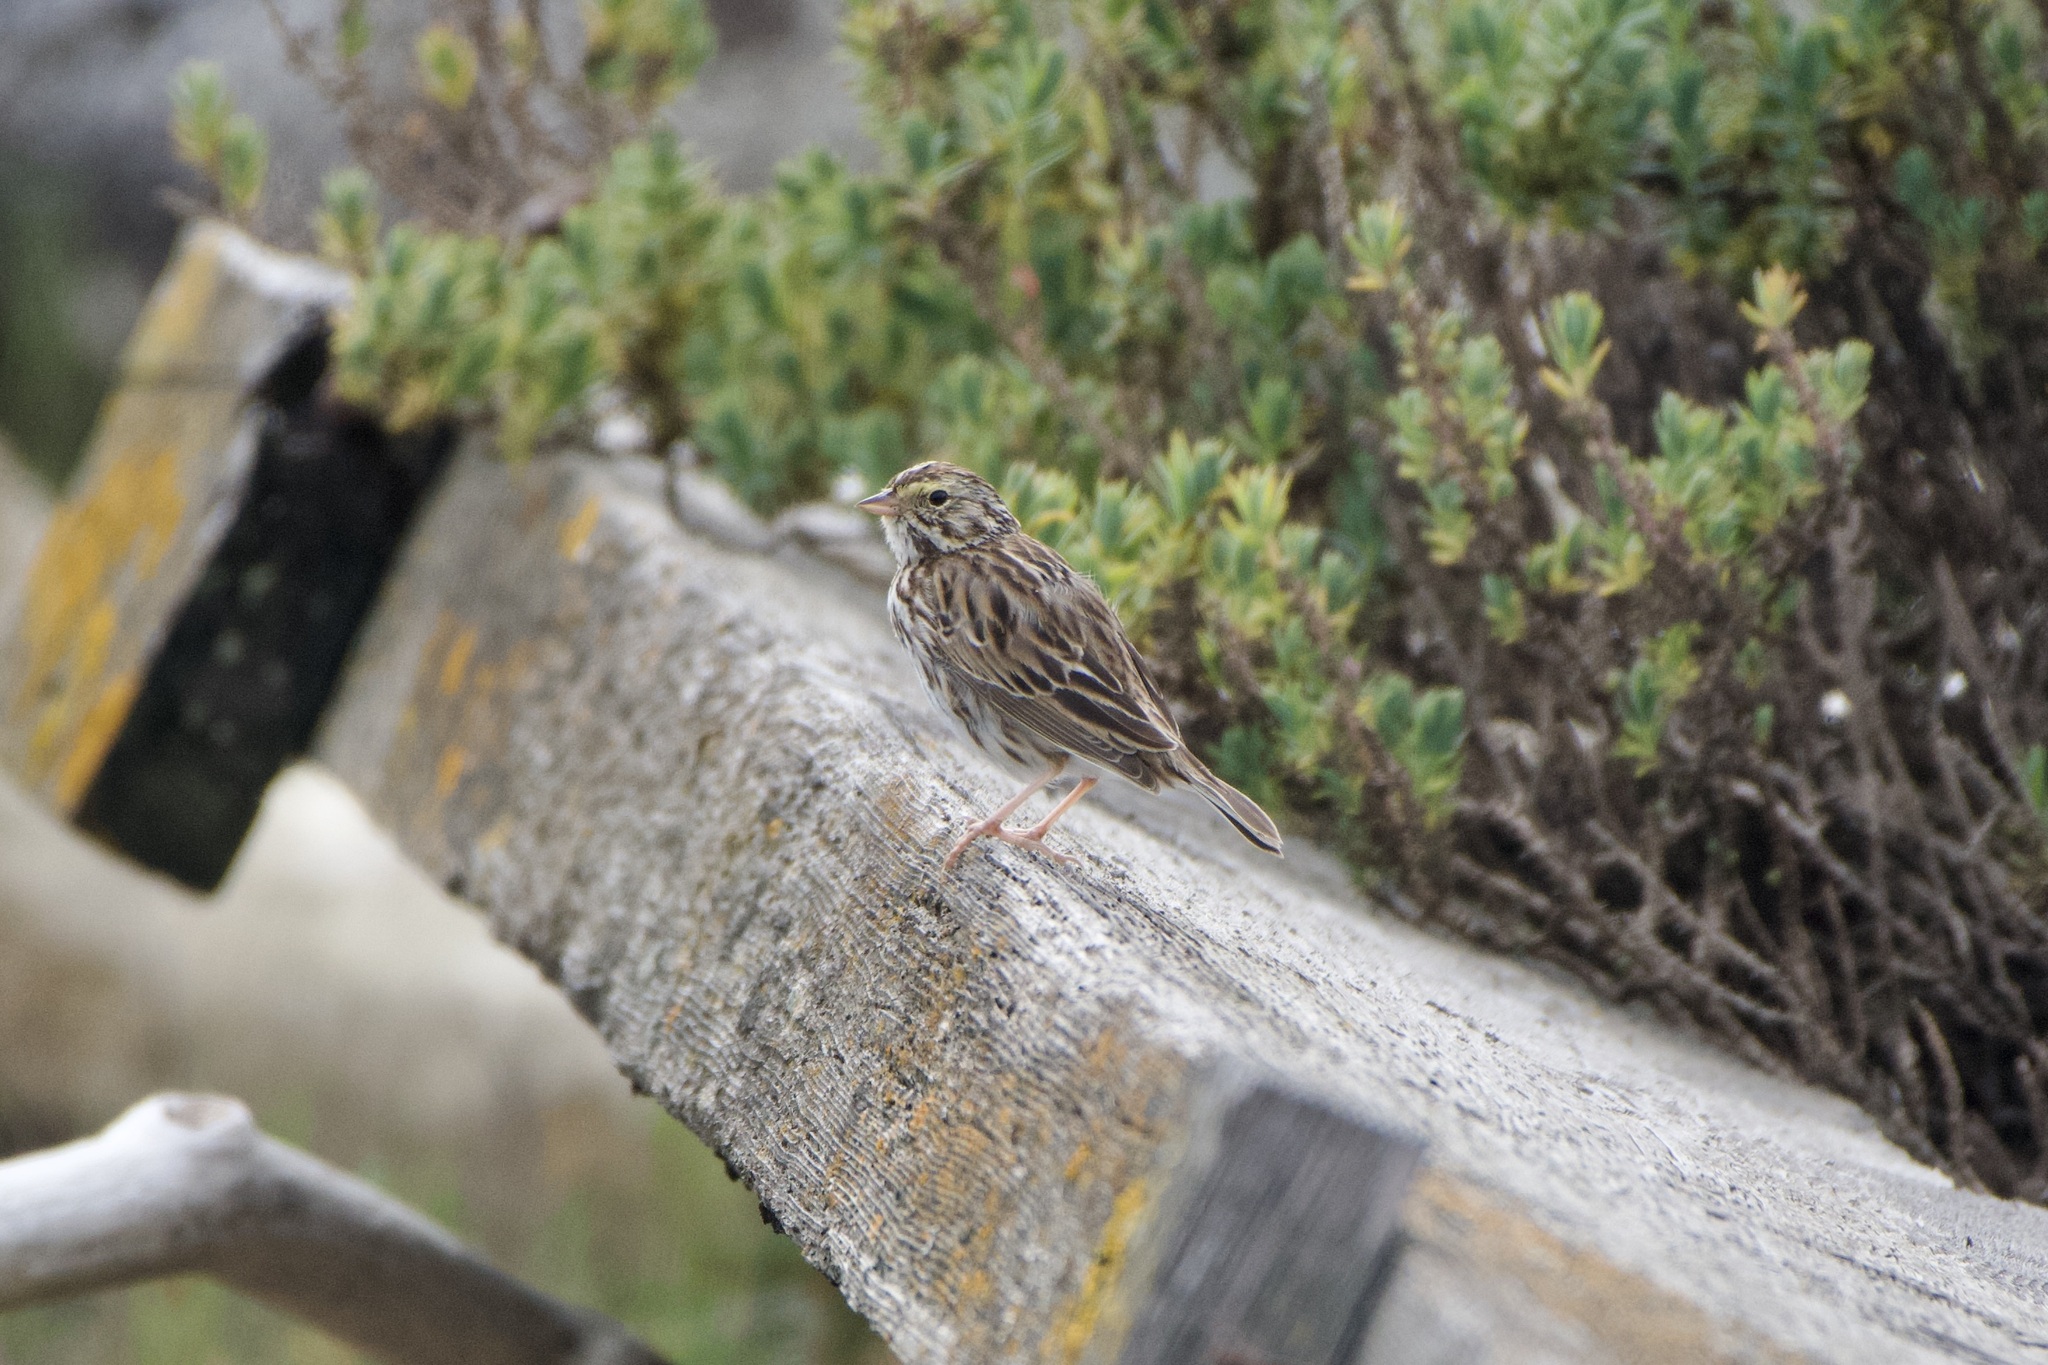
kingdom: Animalia
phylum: Chordata
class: Aves
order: Passeriformes
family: Passerellidae
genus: Passerculus
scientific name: Passerculus sandwichensis
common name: Savannah sparrow
